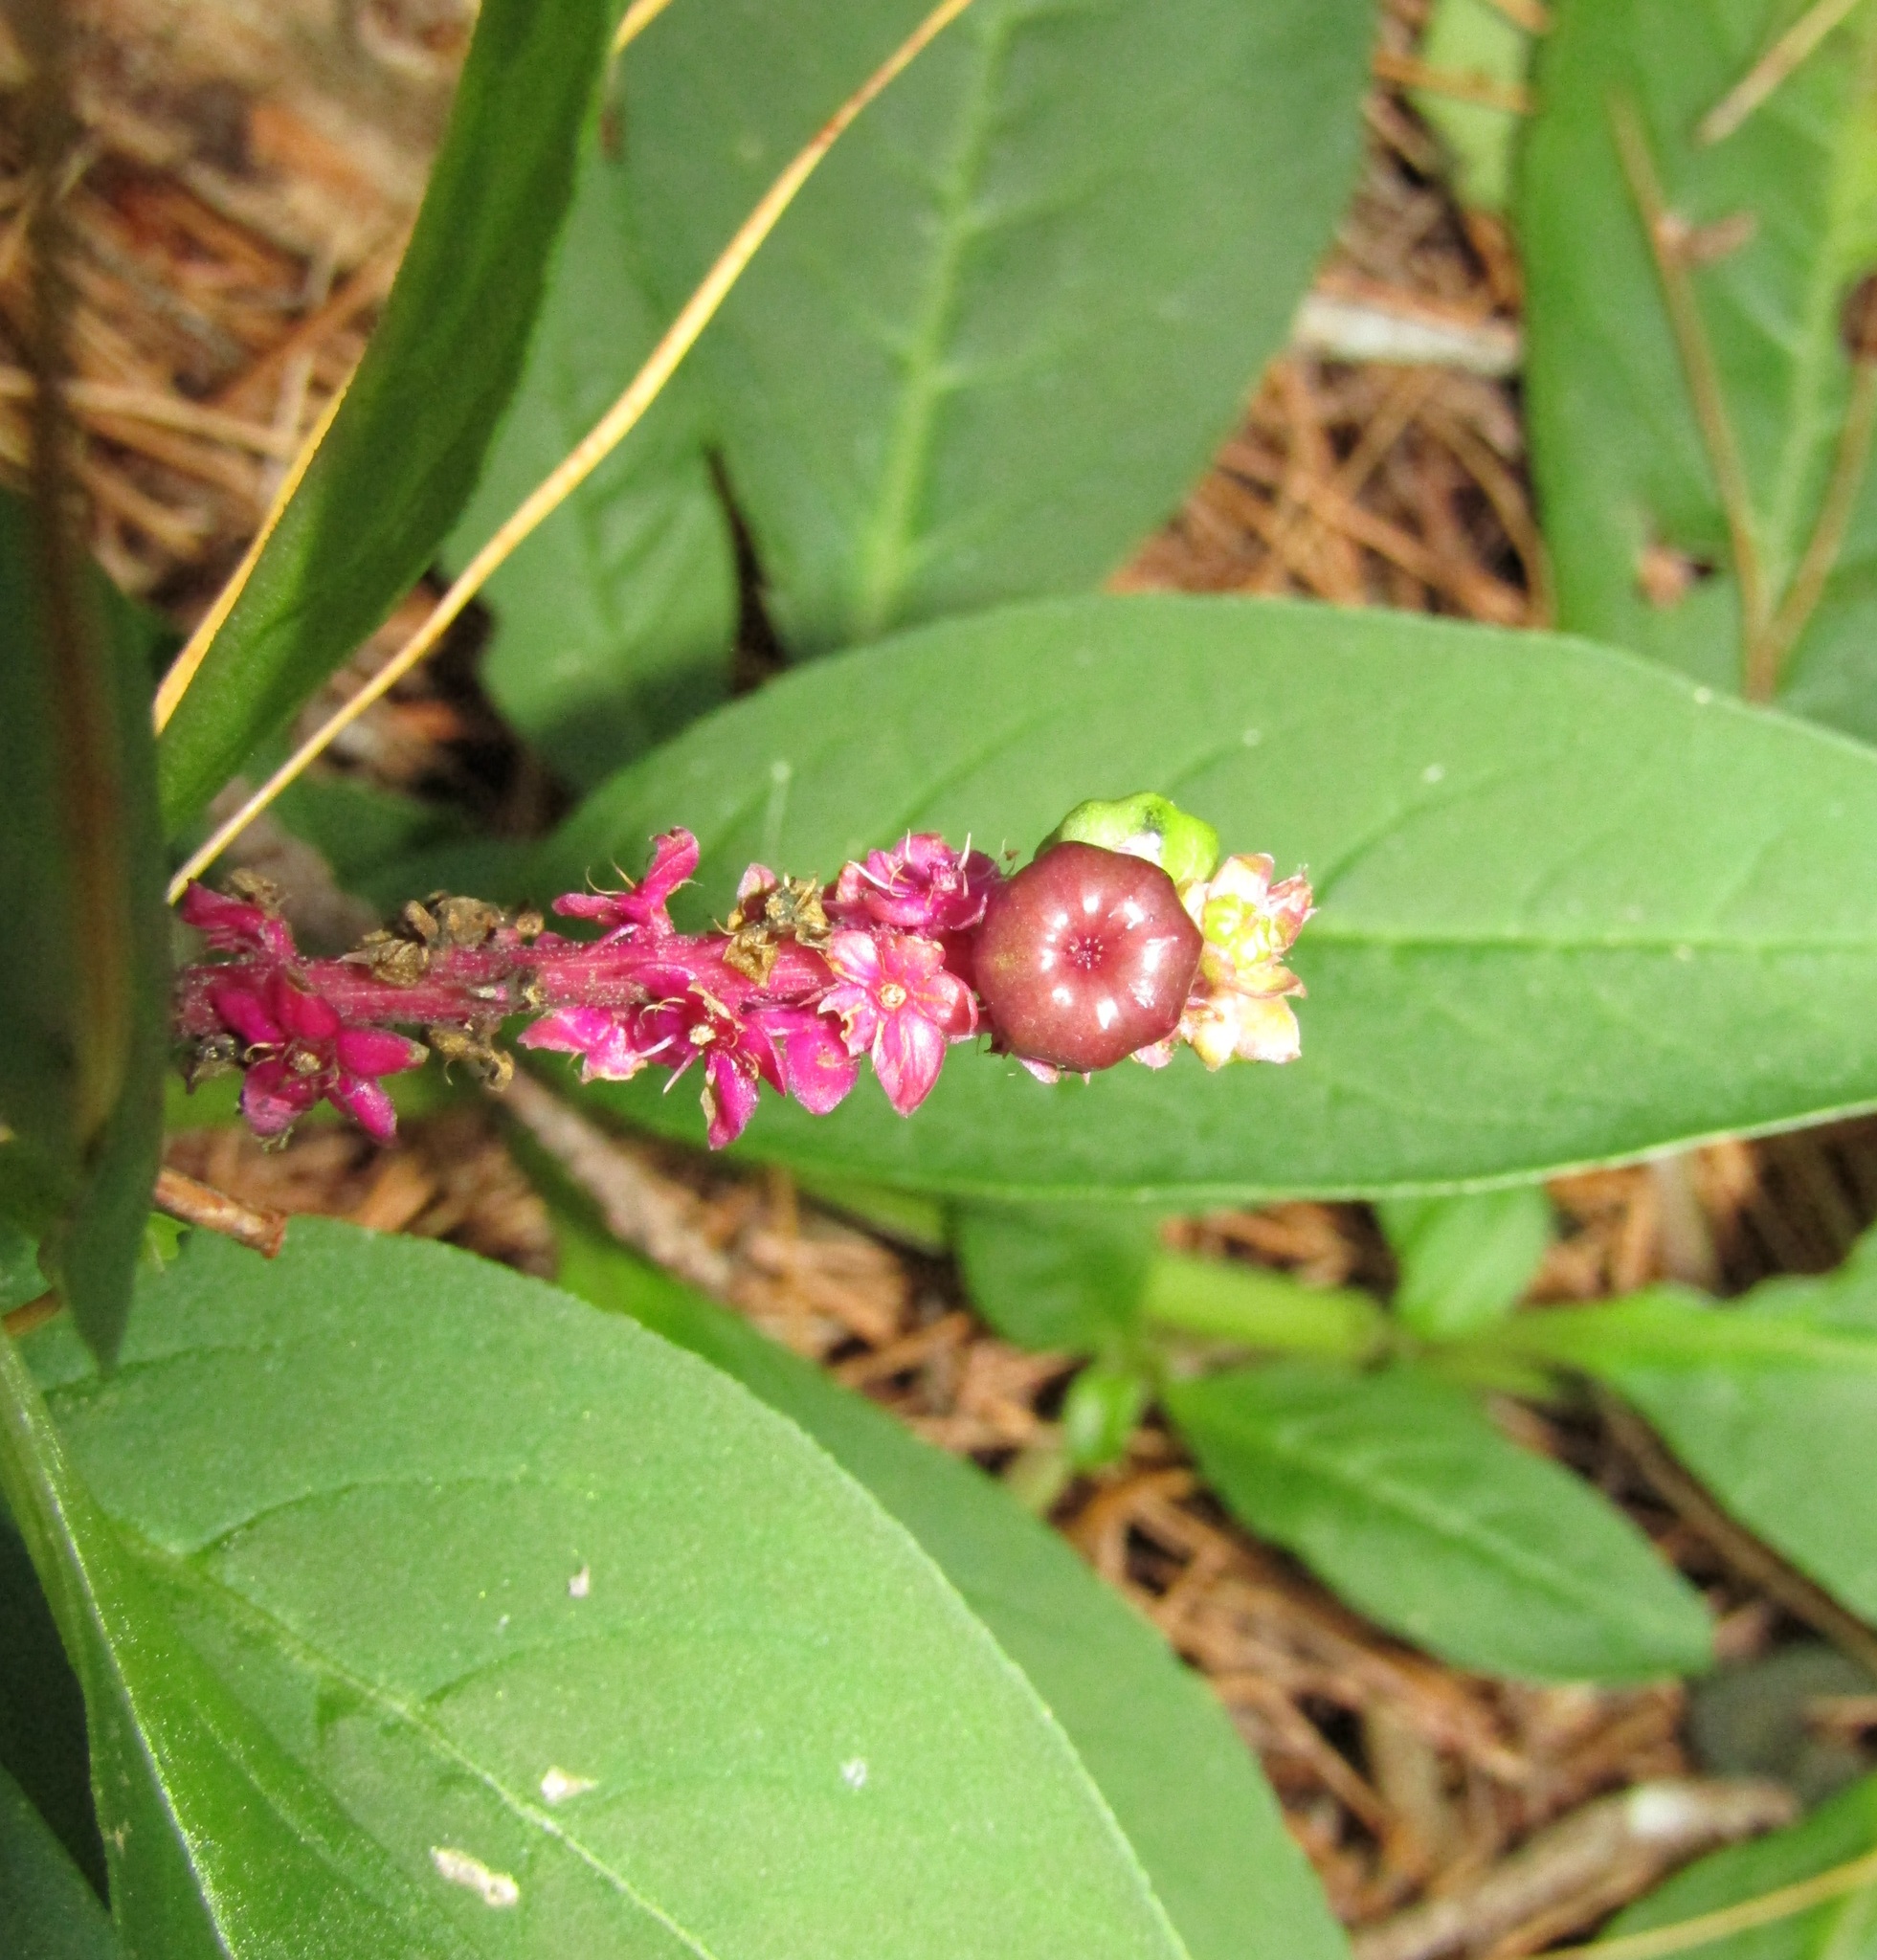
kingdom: Plantae
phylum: Tracheophyta
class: Magnoliopsida
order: Caryophyllales
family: Phytolaccaceae
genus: Phytolacca
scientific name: Phytolacca icosandra
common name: Button pokeweed
